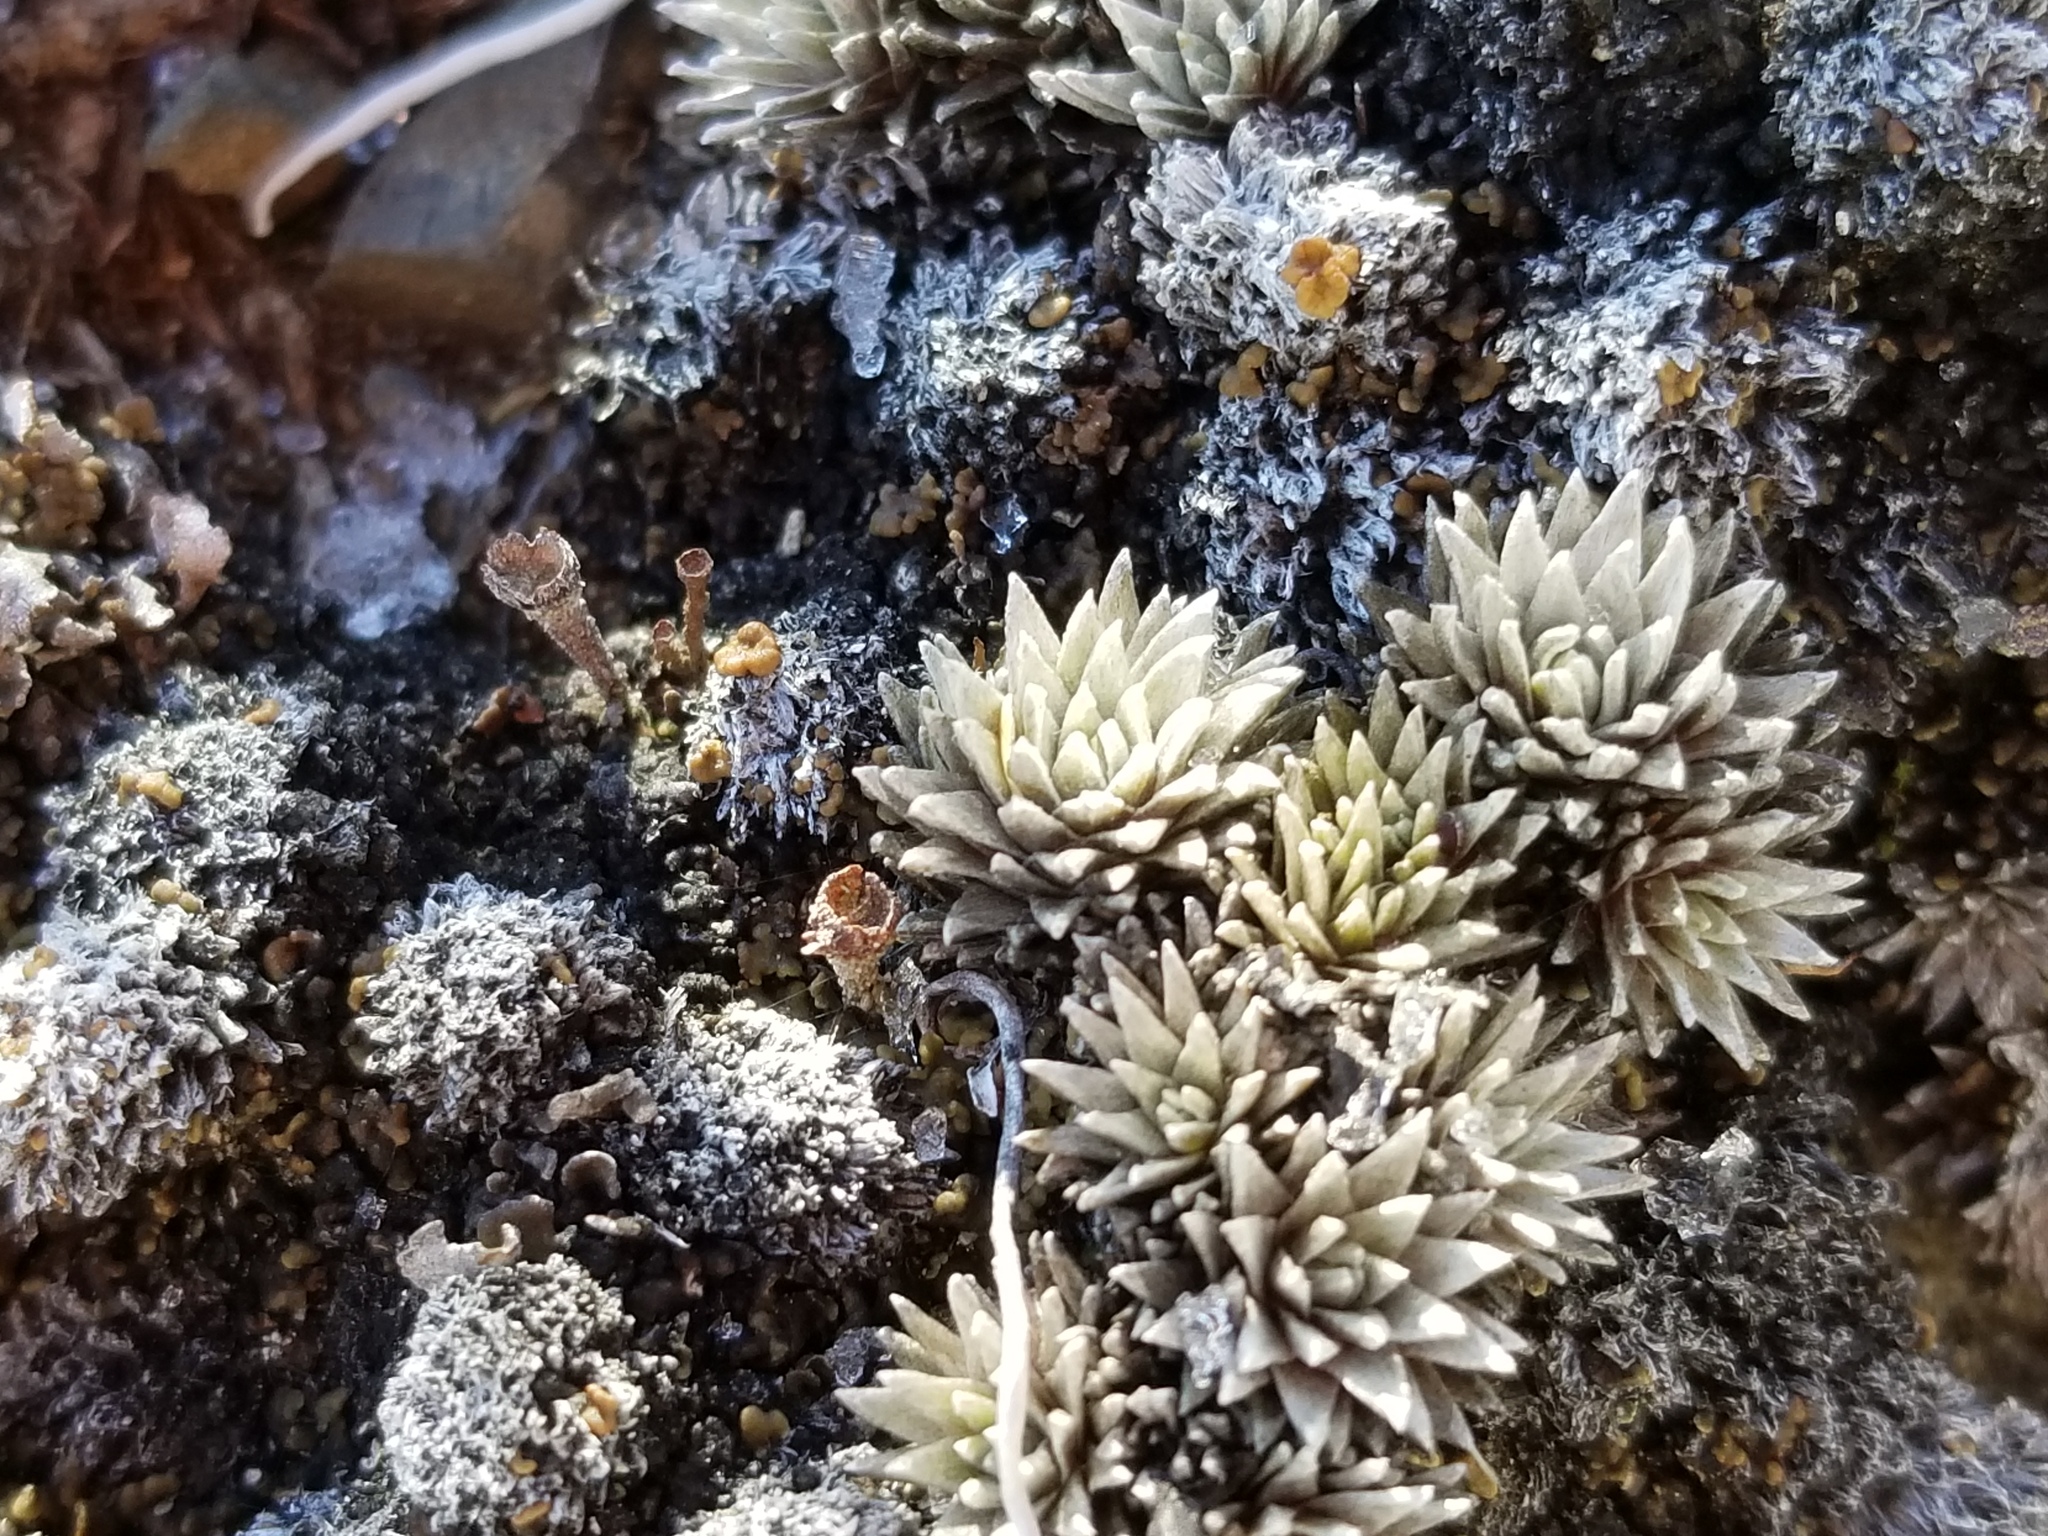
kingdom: Plantae
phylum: Tracheophyta
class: Magnoliopsida
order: Asterales
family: Asteraceae
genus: Raoulia
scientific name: Raoulia grandiflora
